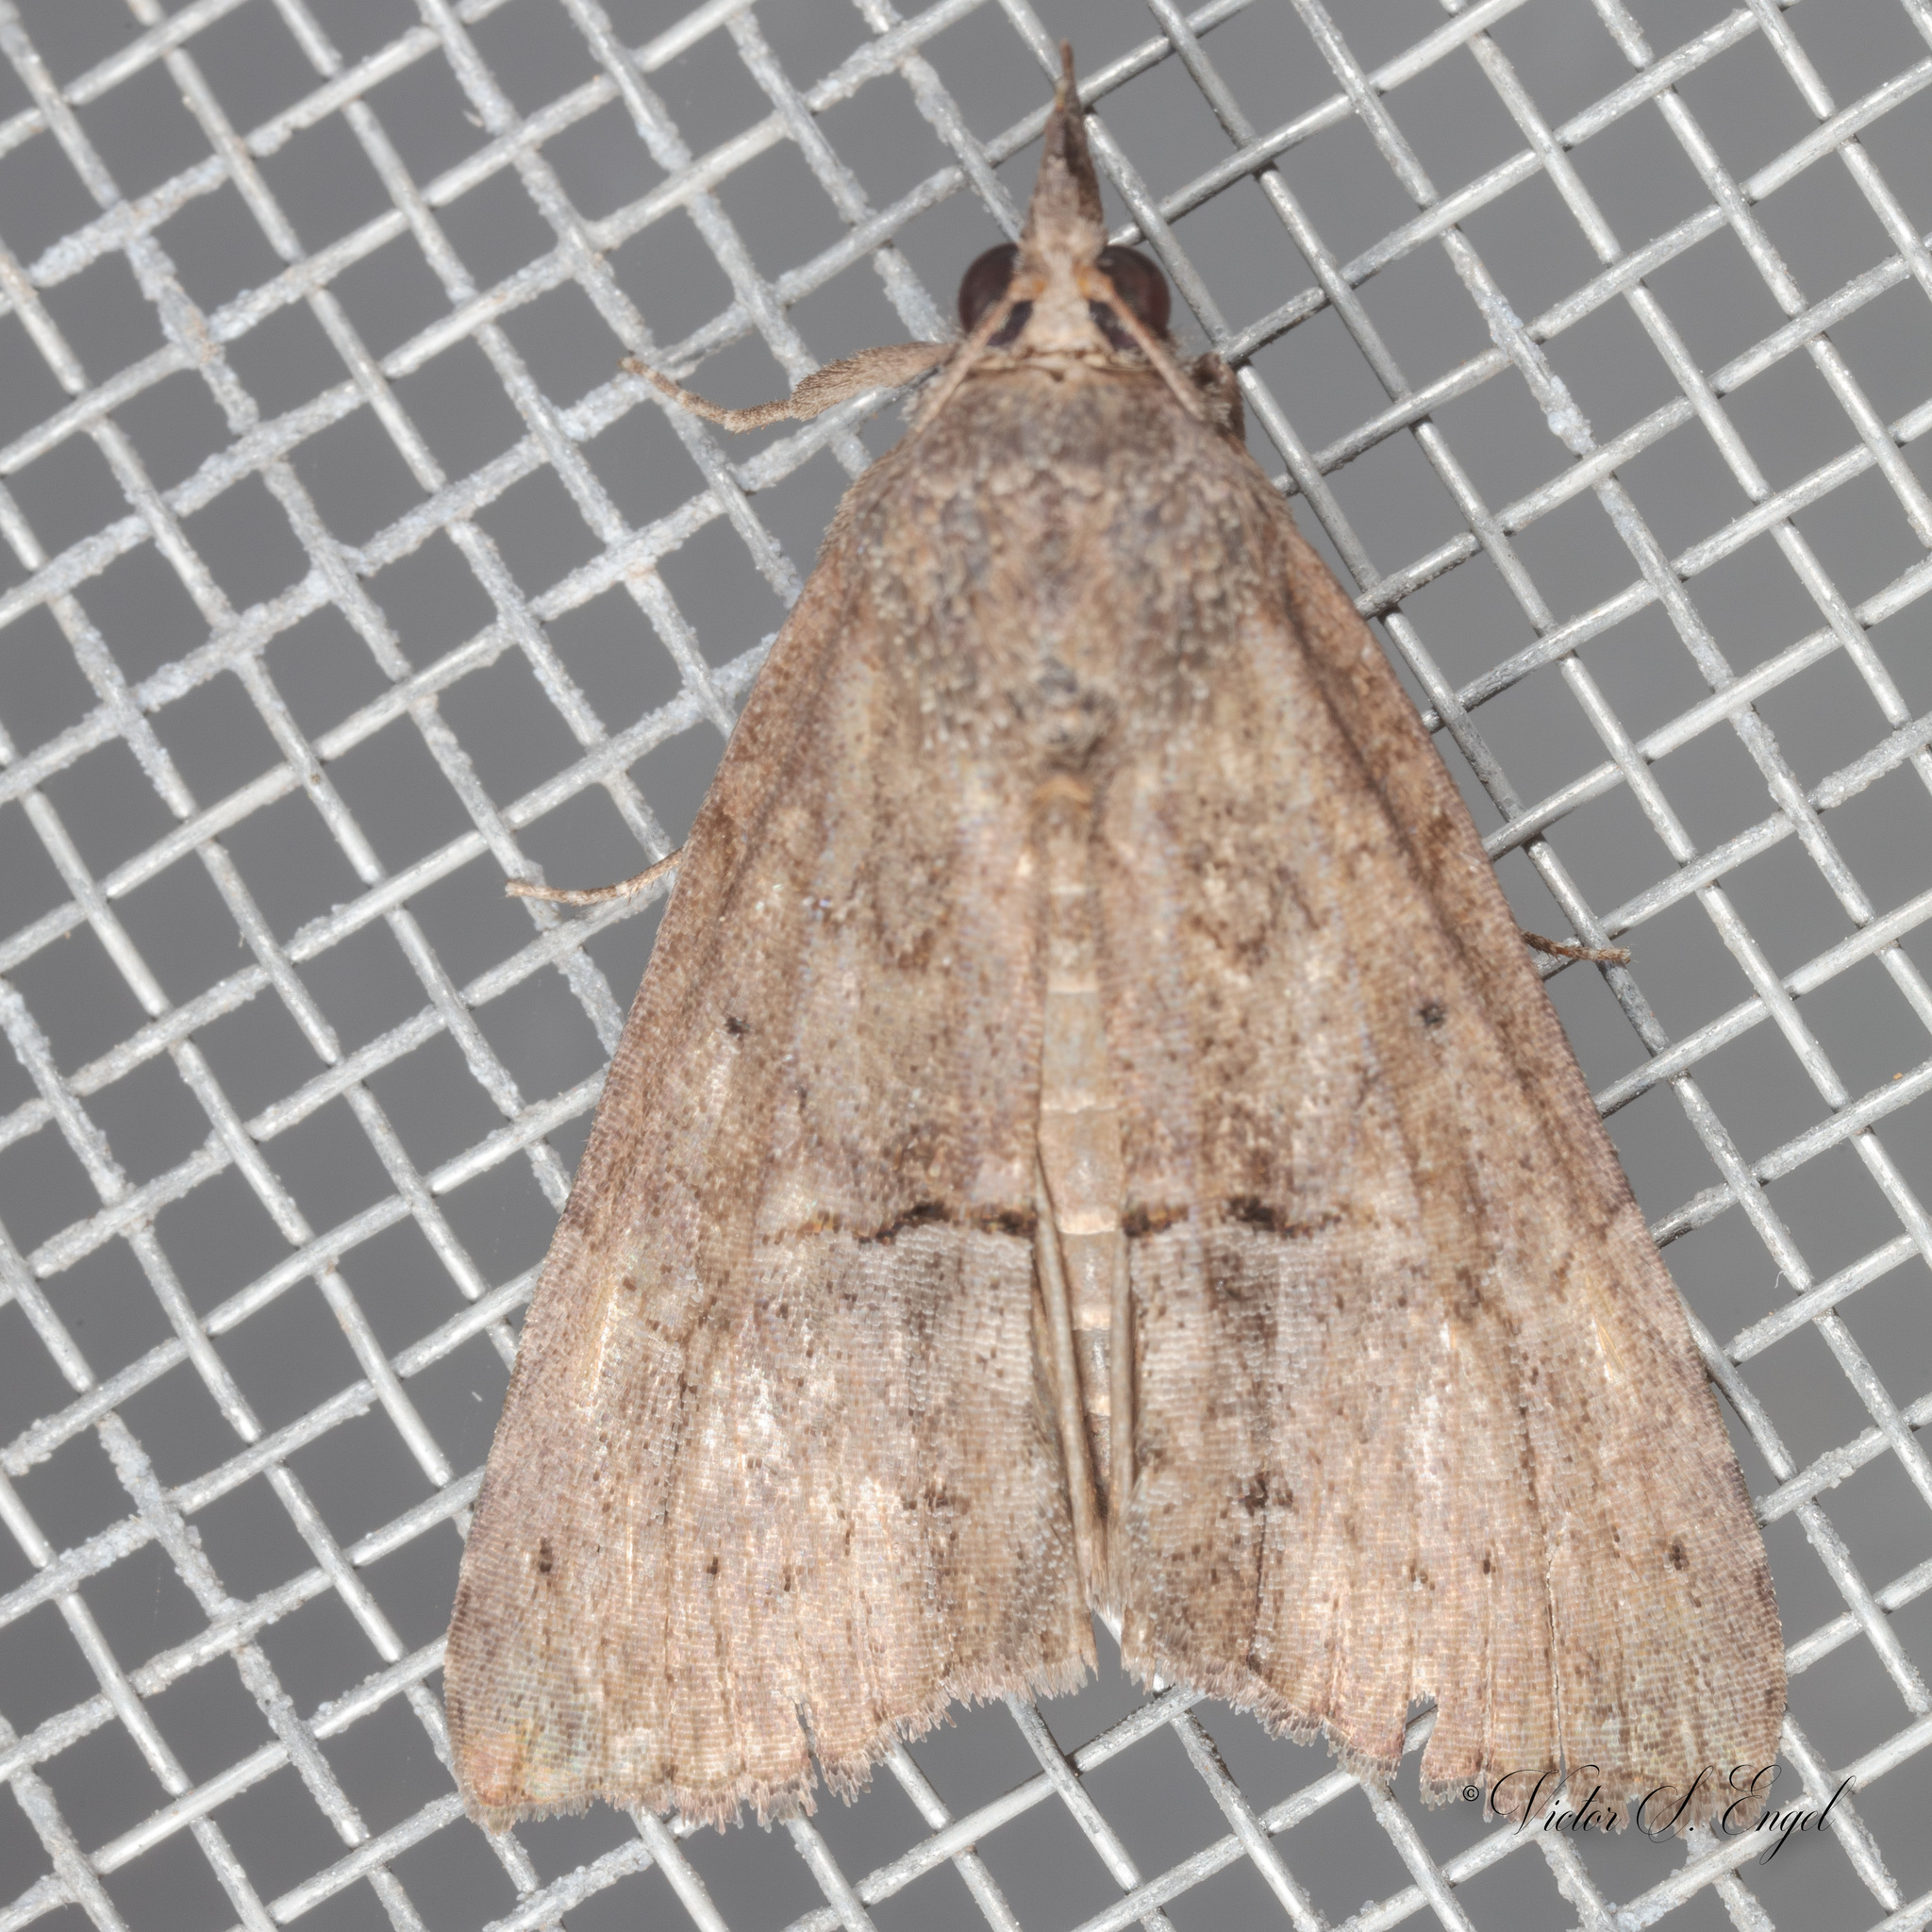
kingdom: Animalia
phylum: Arthropoda
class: Insecta
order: Lepidoptera
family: Erebidae
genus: Hypena
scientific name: Hypena scabra
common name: Green cloverworm
